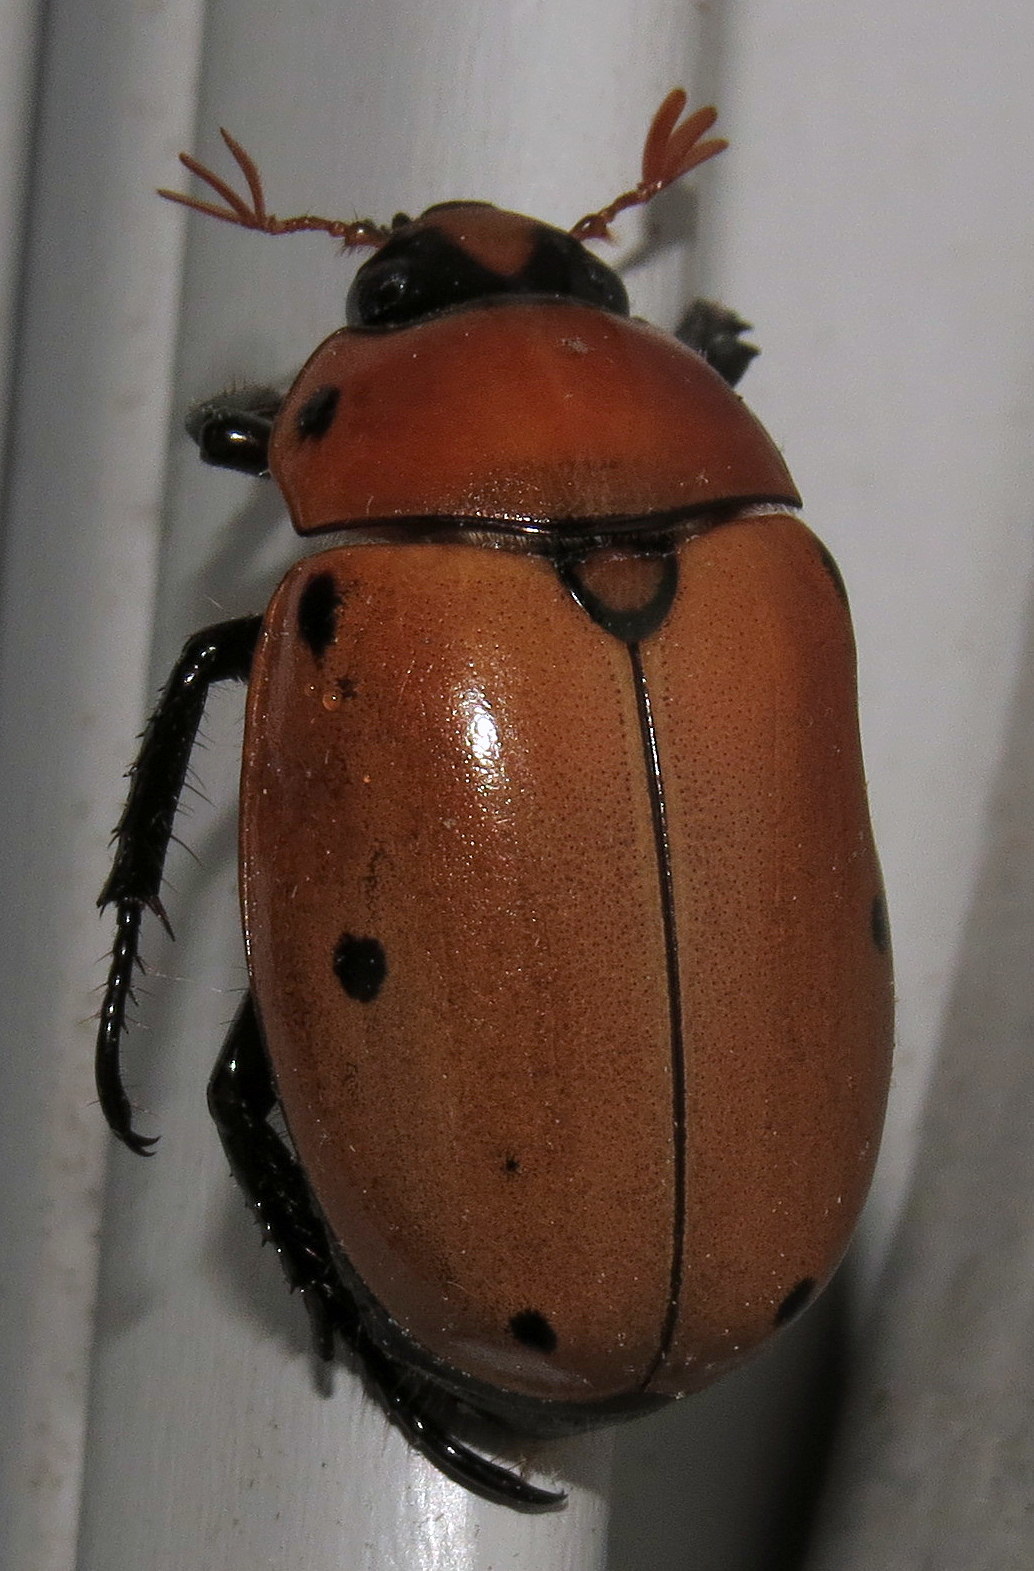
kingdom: Animalia
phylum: Arthropoda
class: Insecta
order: Coleoptera
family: Scarabaeidae
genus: Pelidnota
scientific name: Pelidnota punctata
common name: Grapevine beetle
